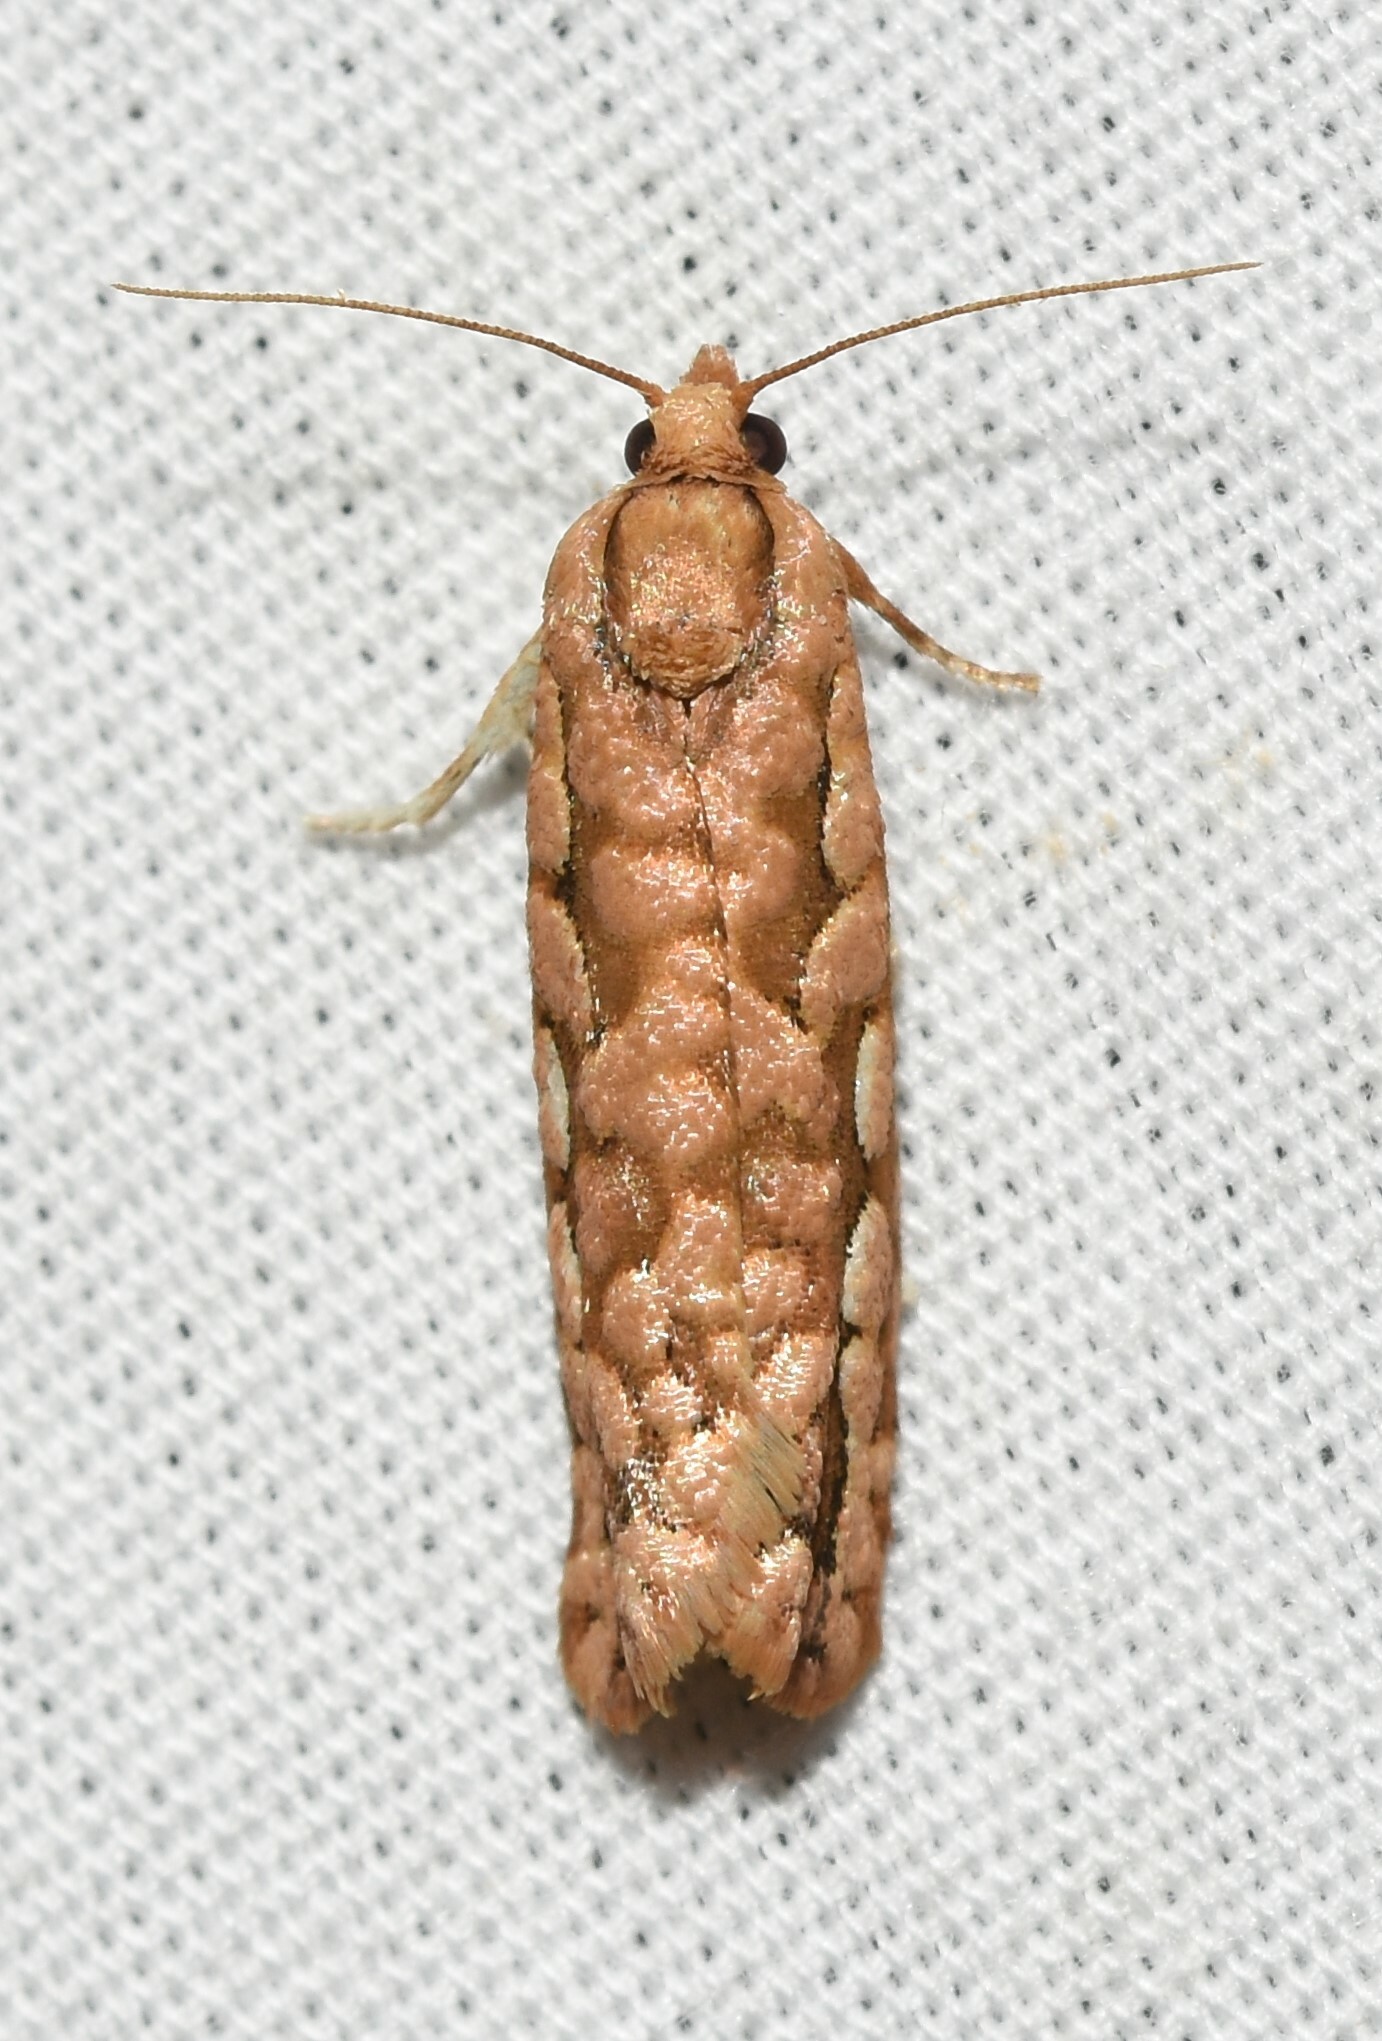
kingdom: Animalia
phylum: Arthropoda
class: Insecta
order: Lepidoptera
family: Tortricidae
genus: Diedra
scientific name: Diedra cockerellana
